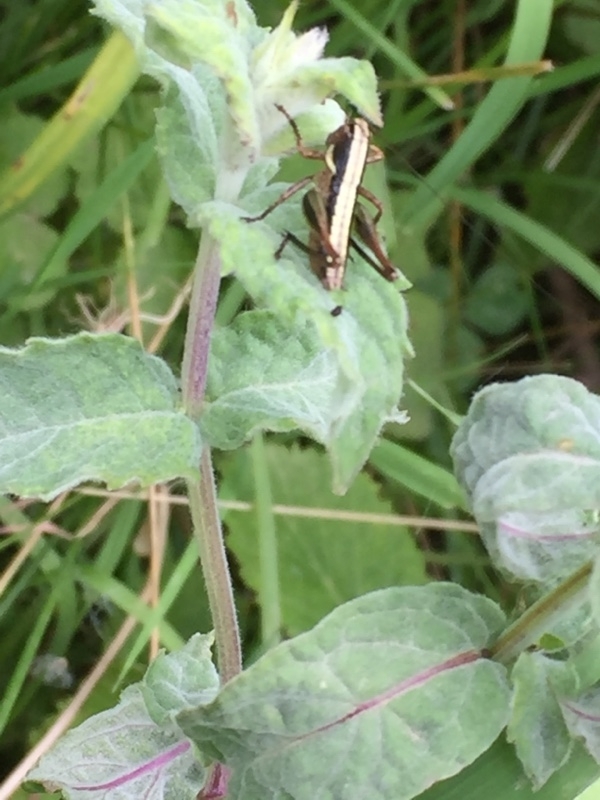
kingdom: Plantae
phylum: Tracheophyta
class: Magnoliopsida
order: Lamiales
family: Lamiaceae
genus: Mentha
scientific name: Mentha longifolia
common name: Horse mint
